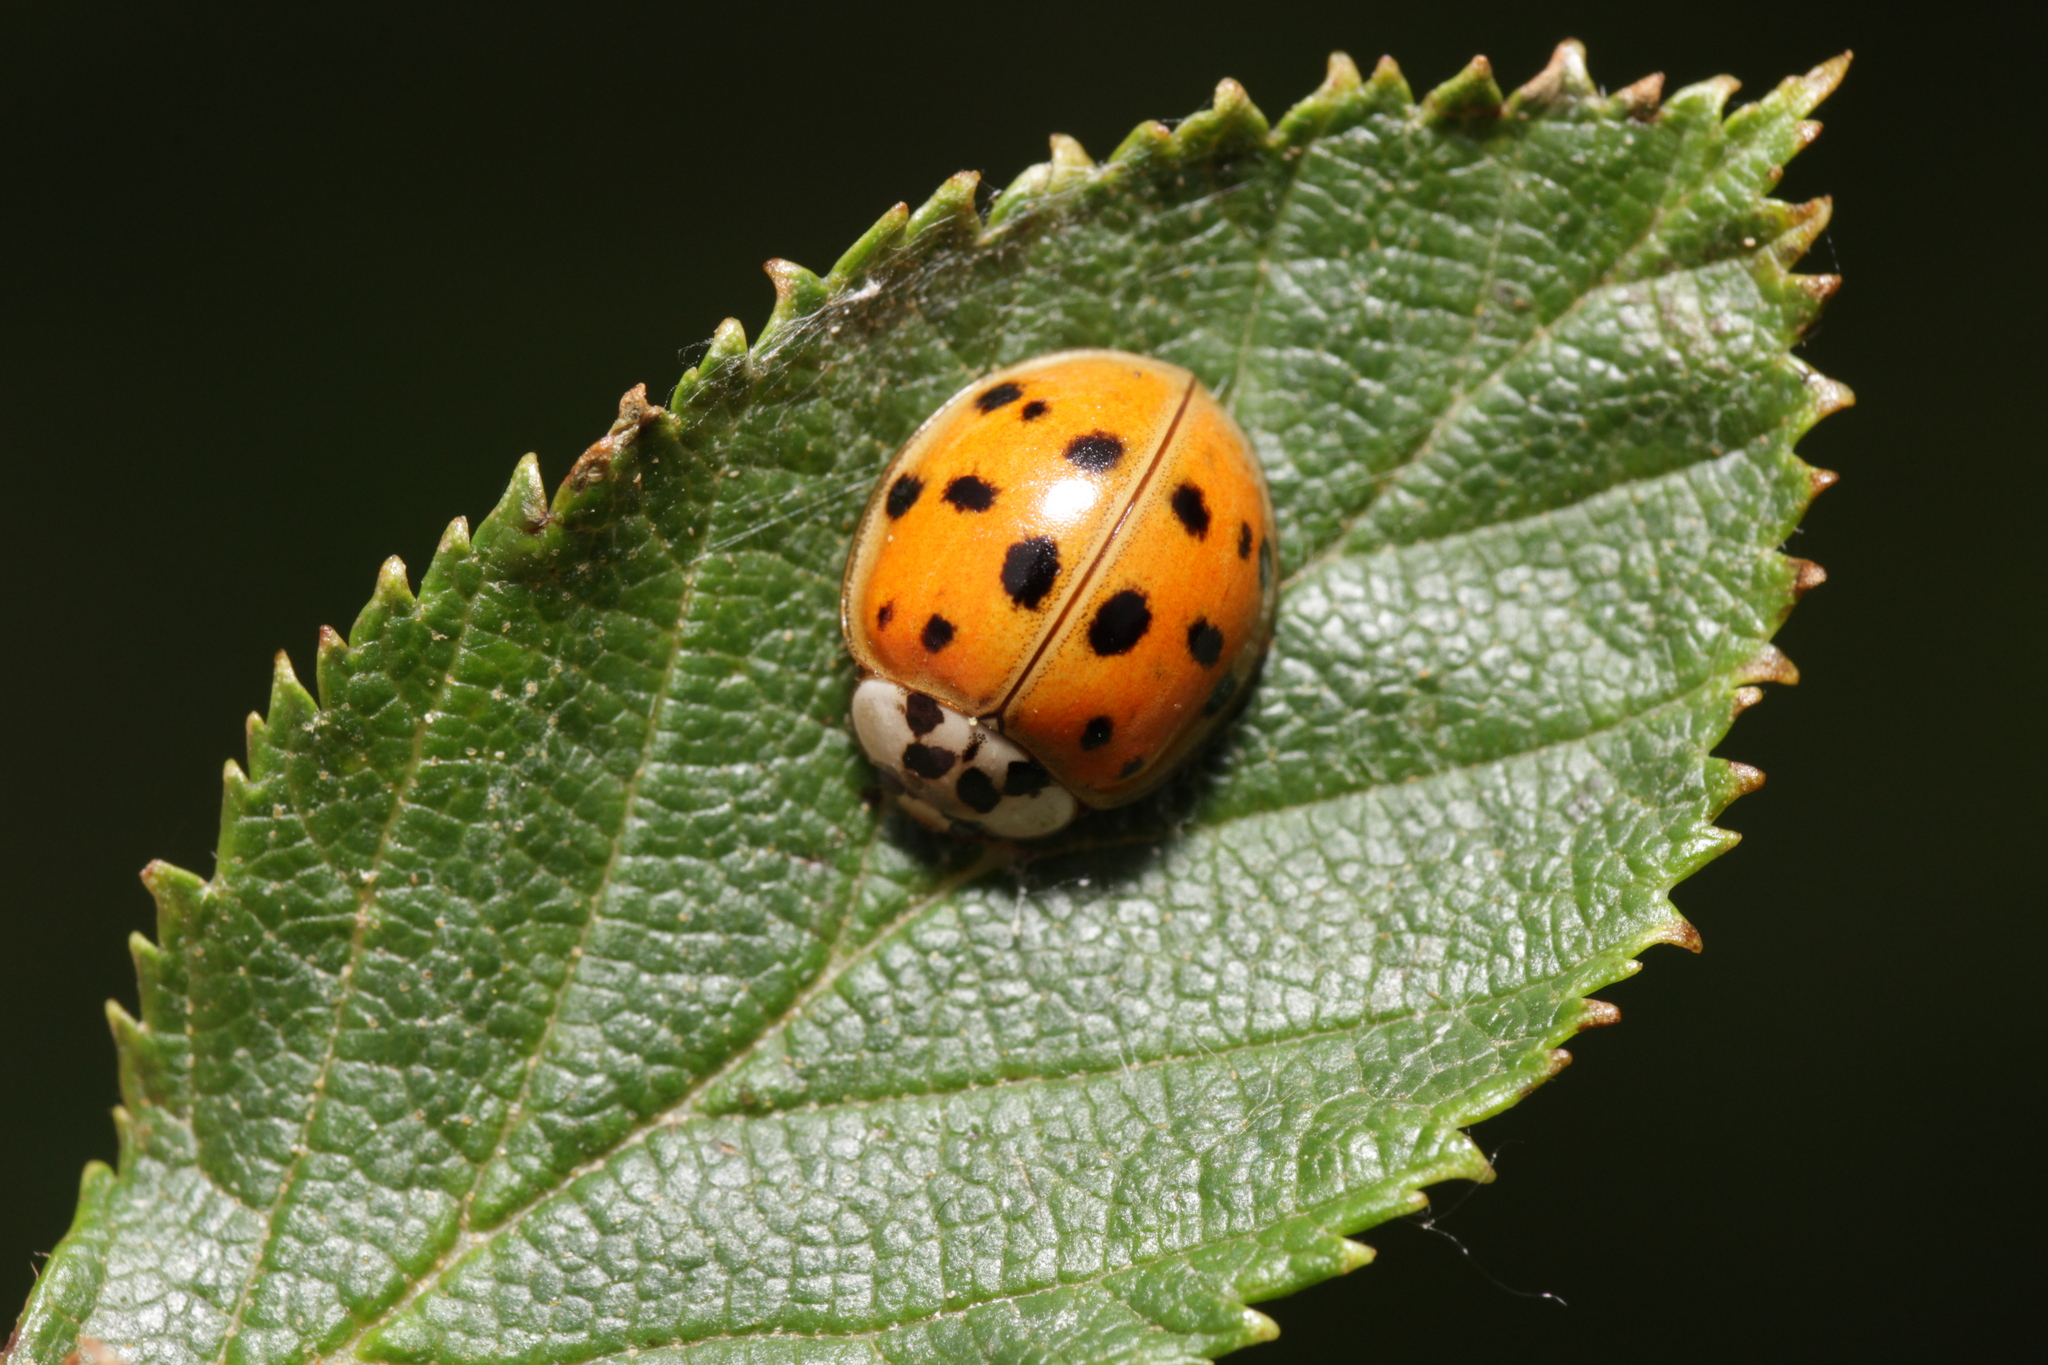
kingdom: Animalia
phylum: Arthropoda
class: Insecta
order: Coleoptera
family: Coccinellidae
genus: Harmonia
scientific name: Harmonia axyridis
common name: Harlequin ladybird
